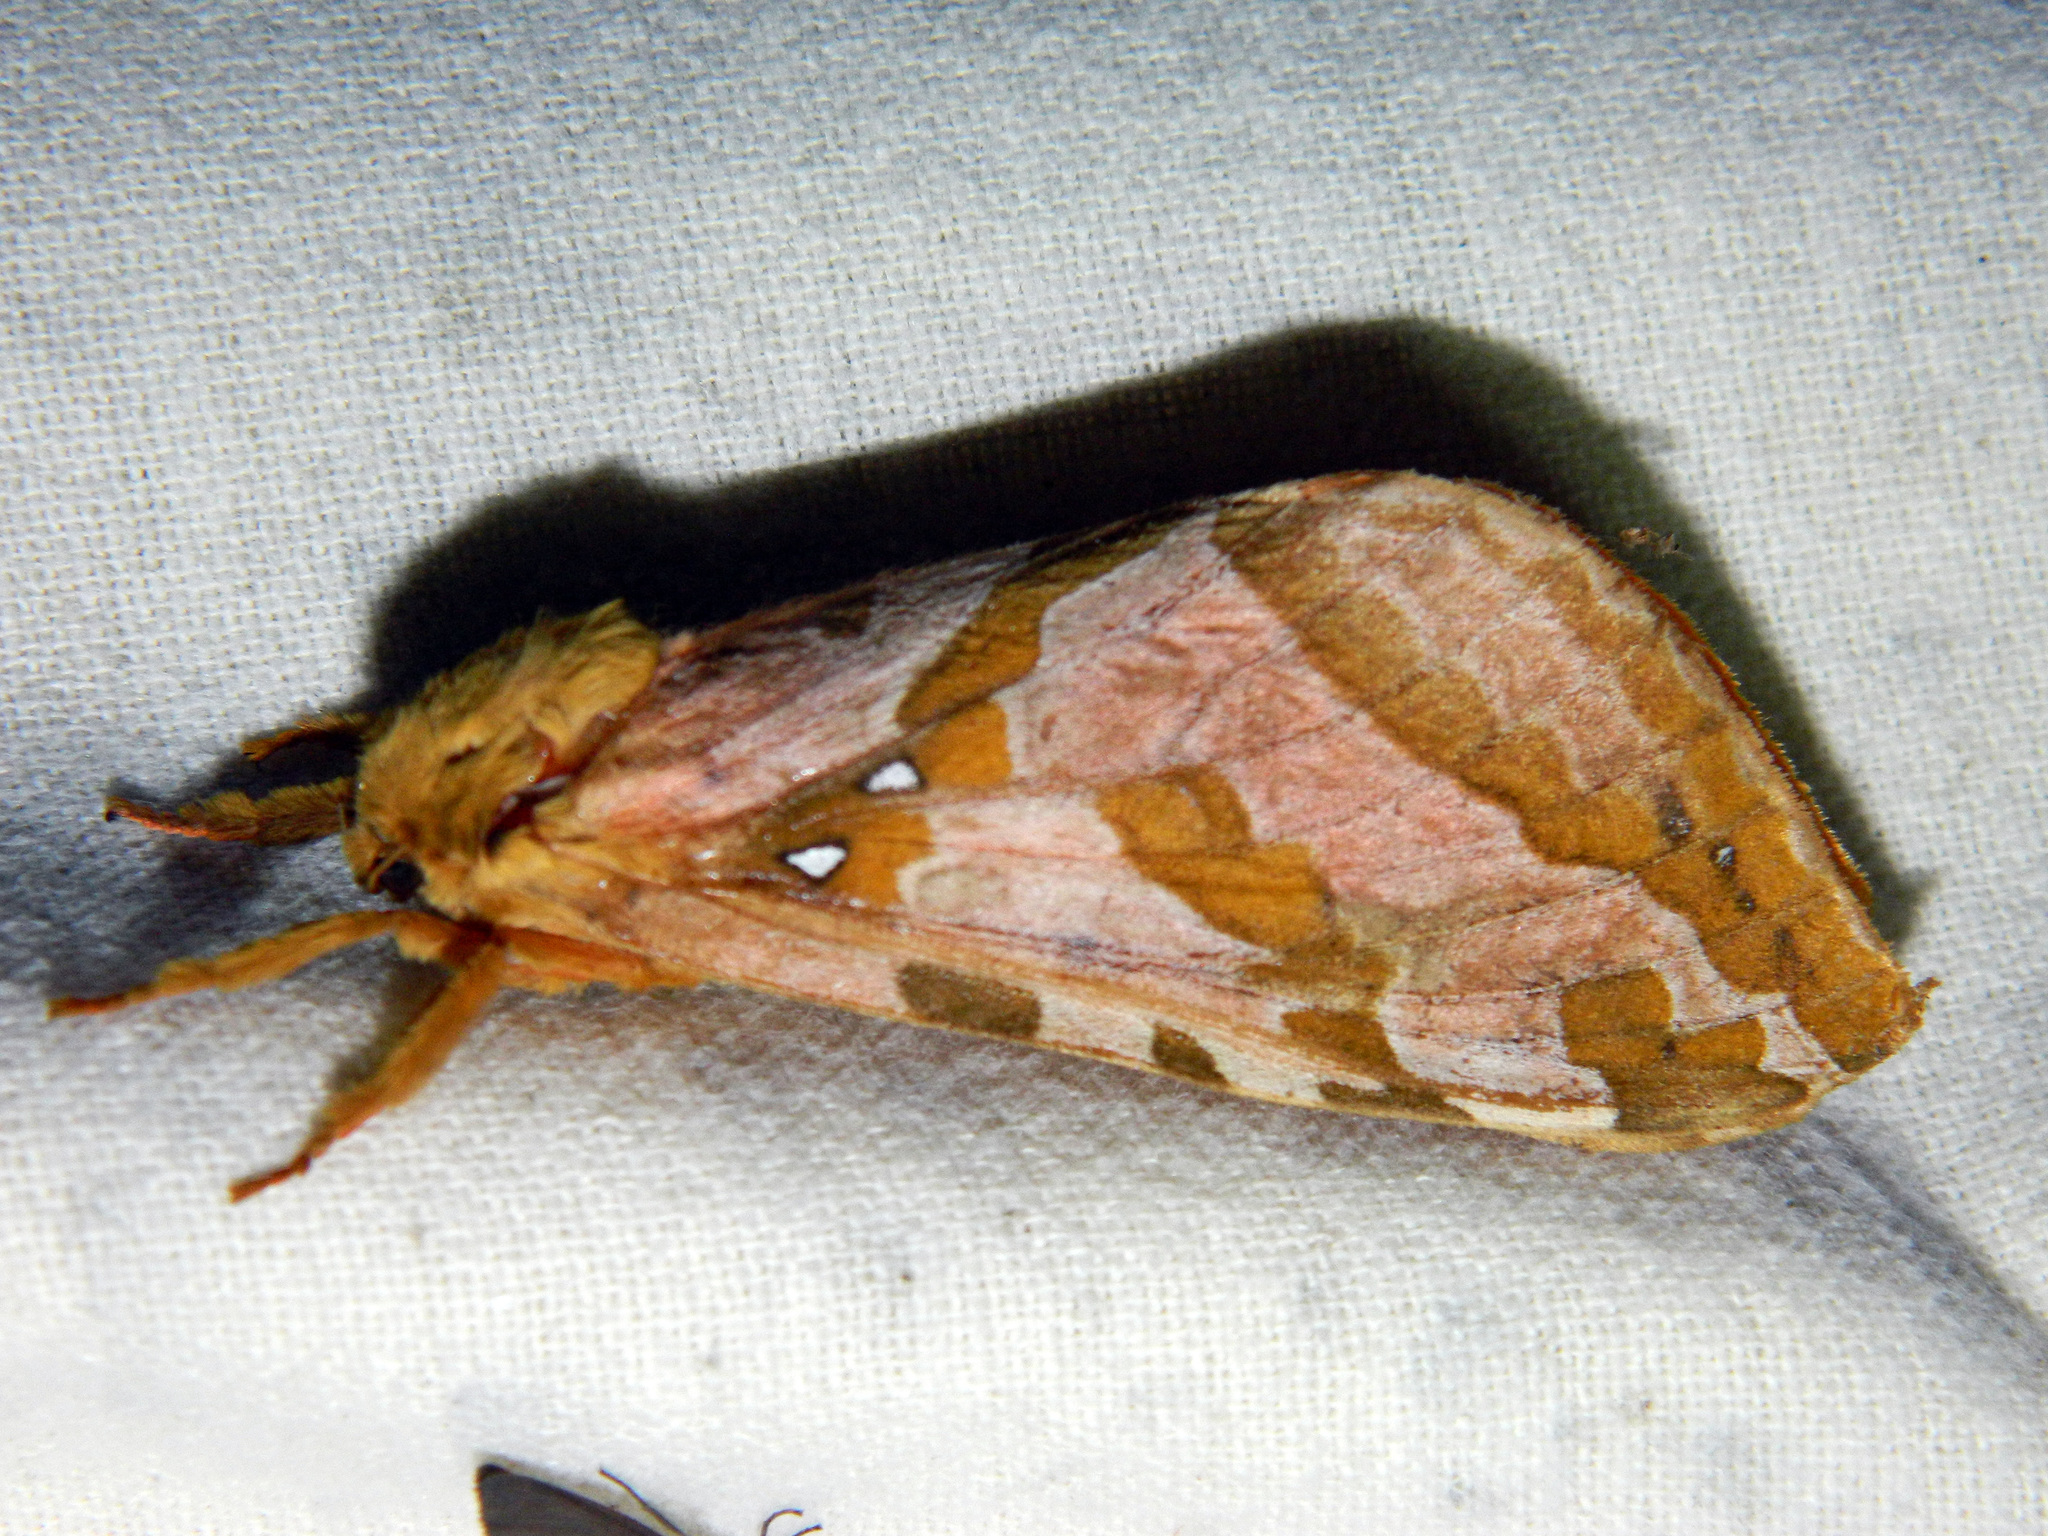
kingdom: Animalia
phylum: Arthropoda
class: Insecta
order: Lepidoptera
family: Hepialidae
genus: Sthenopis
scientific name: Sthenopis purpurascens
